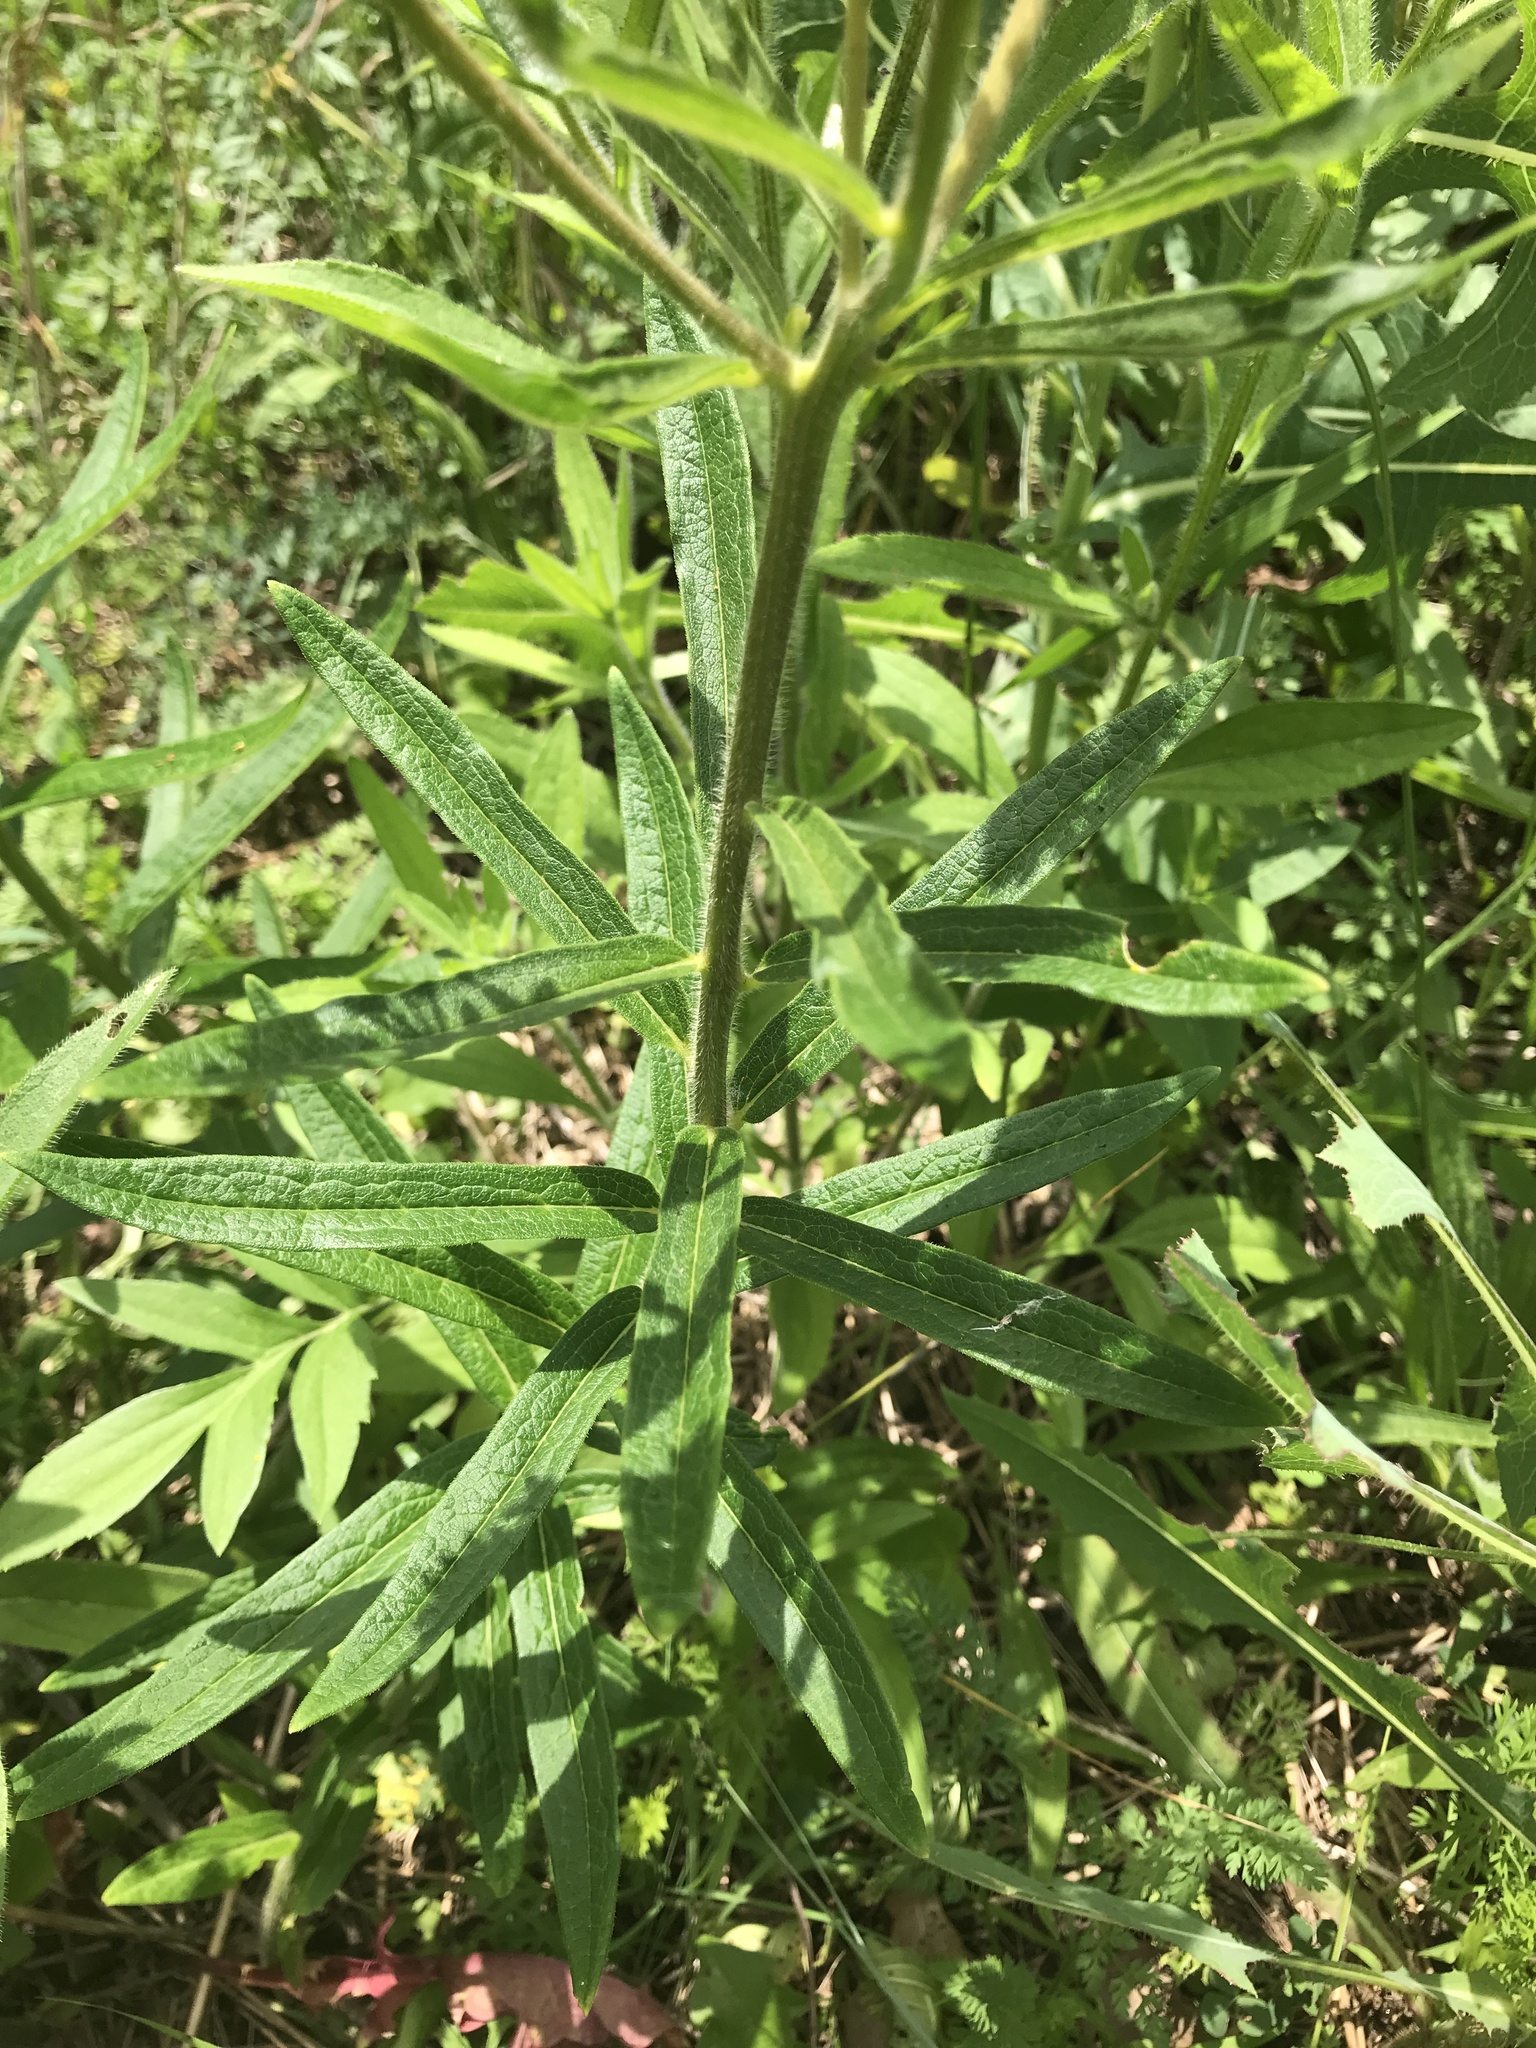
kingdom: Plantae
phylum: Tracheophyta
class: Magnoliopsida
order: Gentianales
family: Apocynaceae
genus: Asclepias
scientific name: Asclepias tuberosa
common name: Butterfly milkweed
